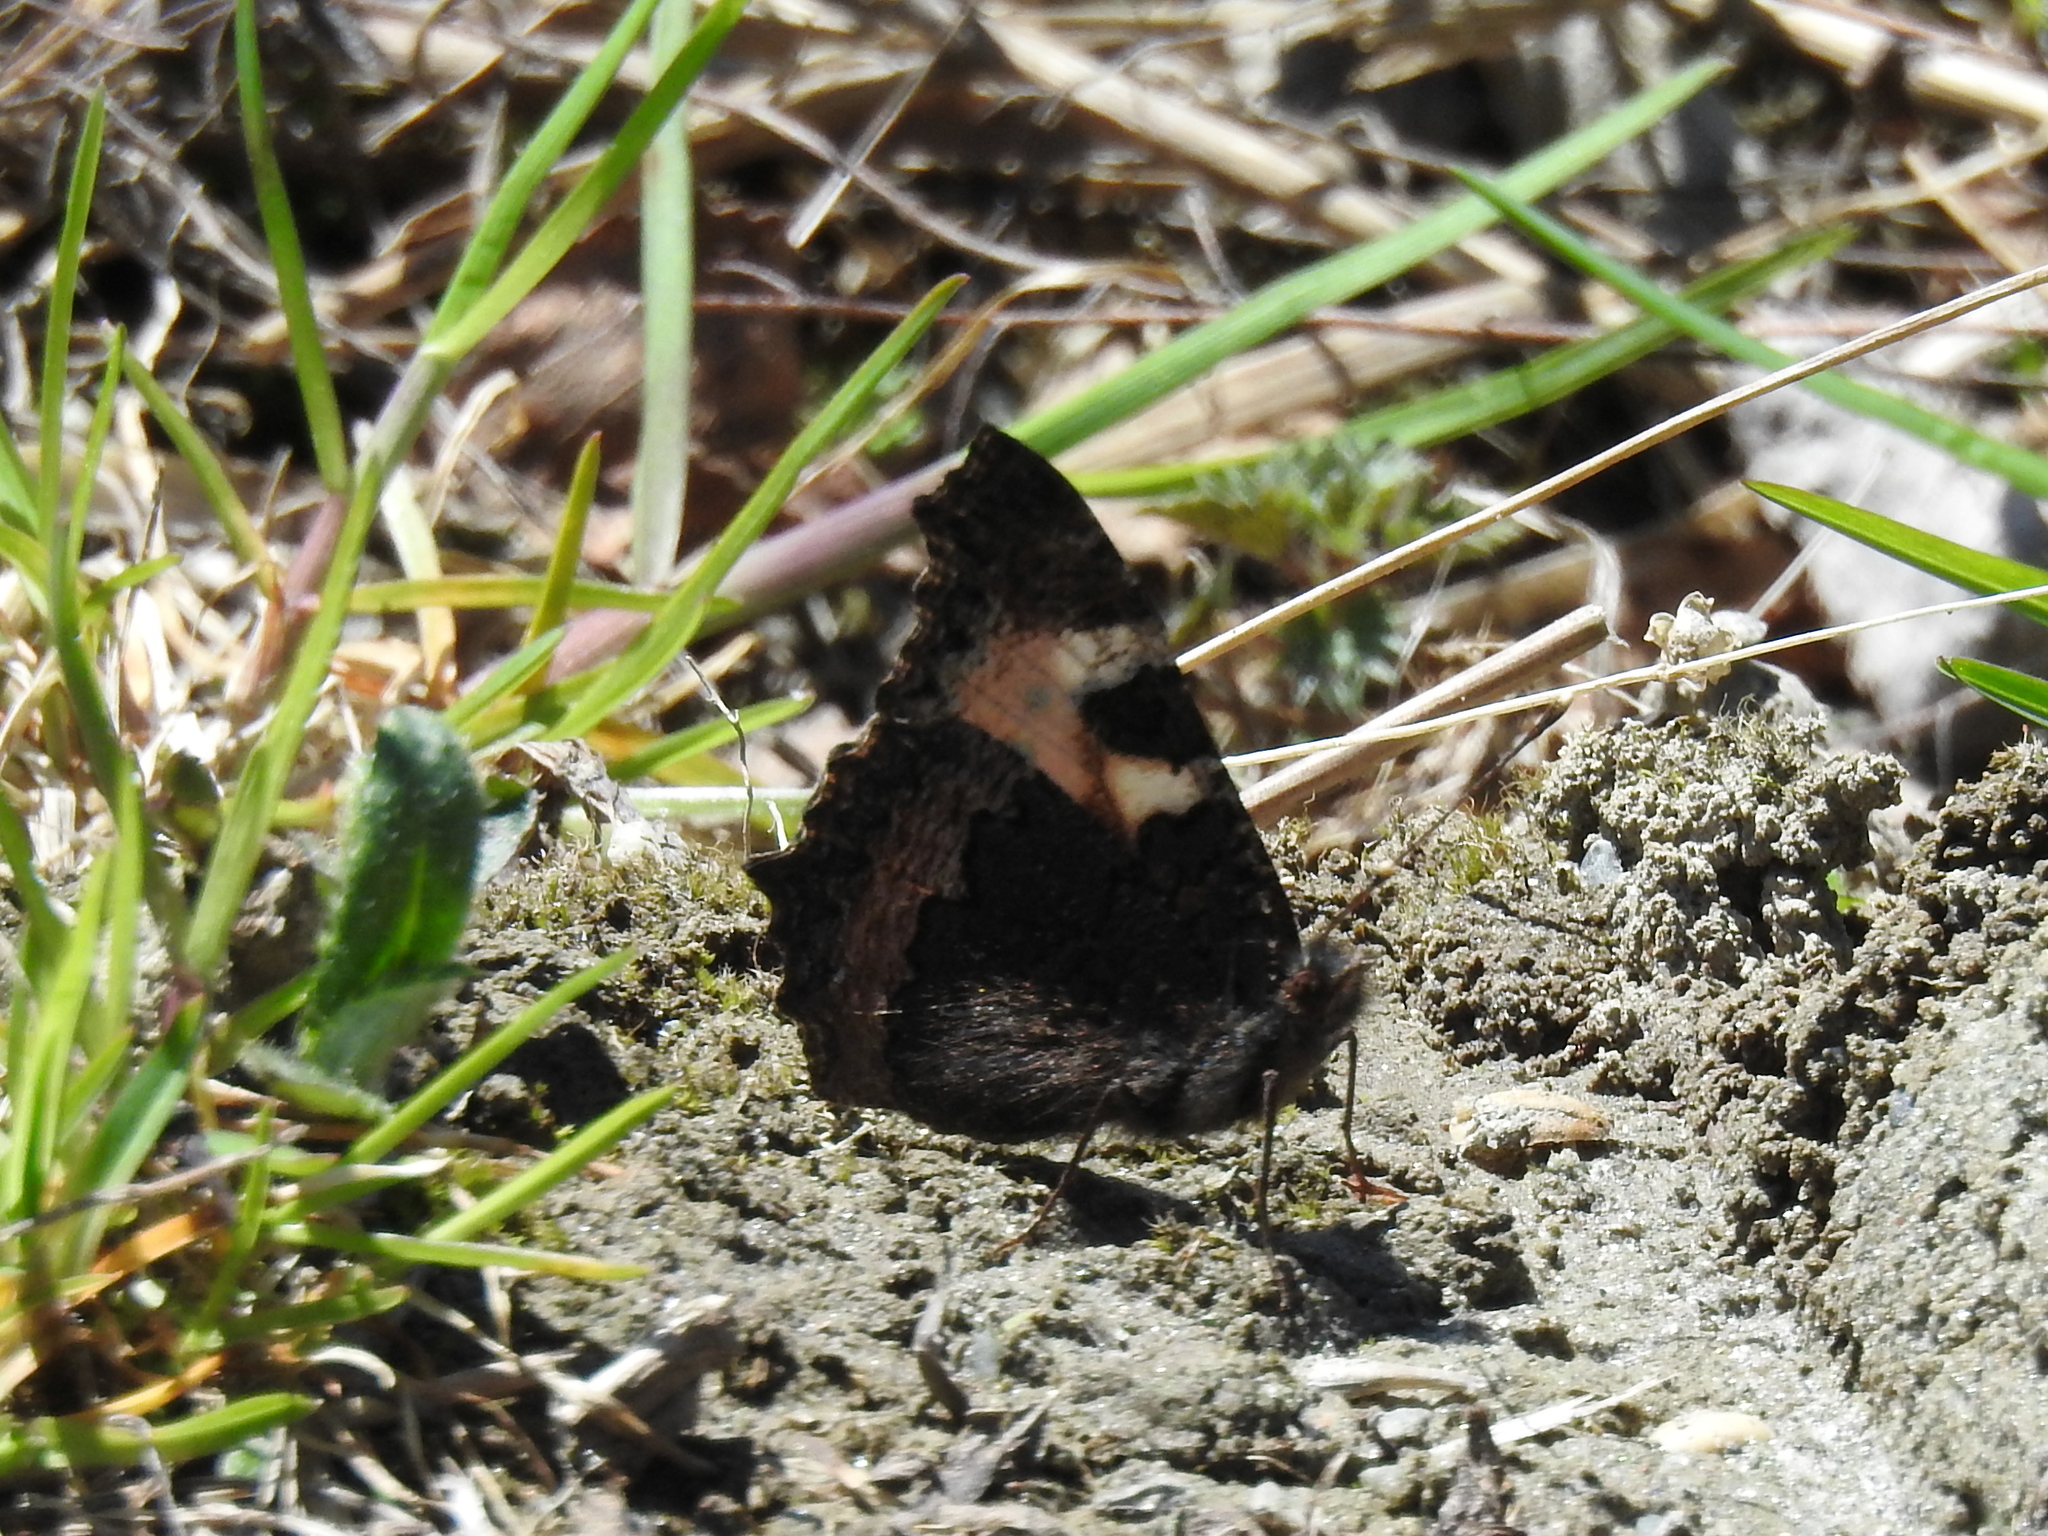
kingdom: Animalia
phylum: Arthropoda
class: Insecta
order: Lepidoptera
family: Nymphalidae
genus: Aglais
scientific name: Aglais urticae
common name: Small tortoiseshell
